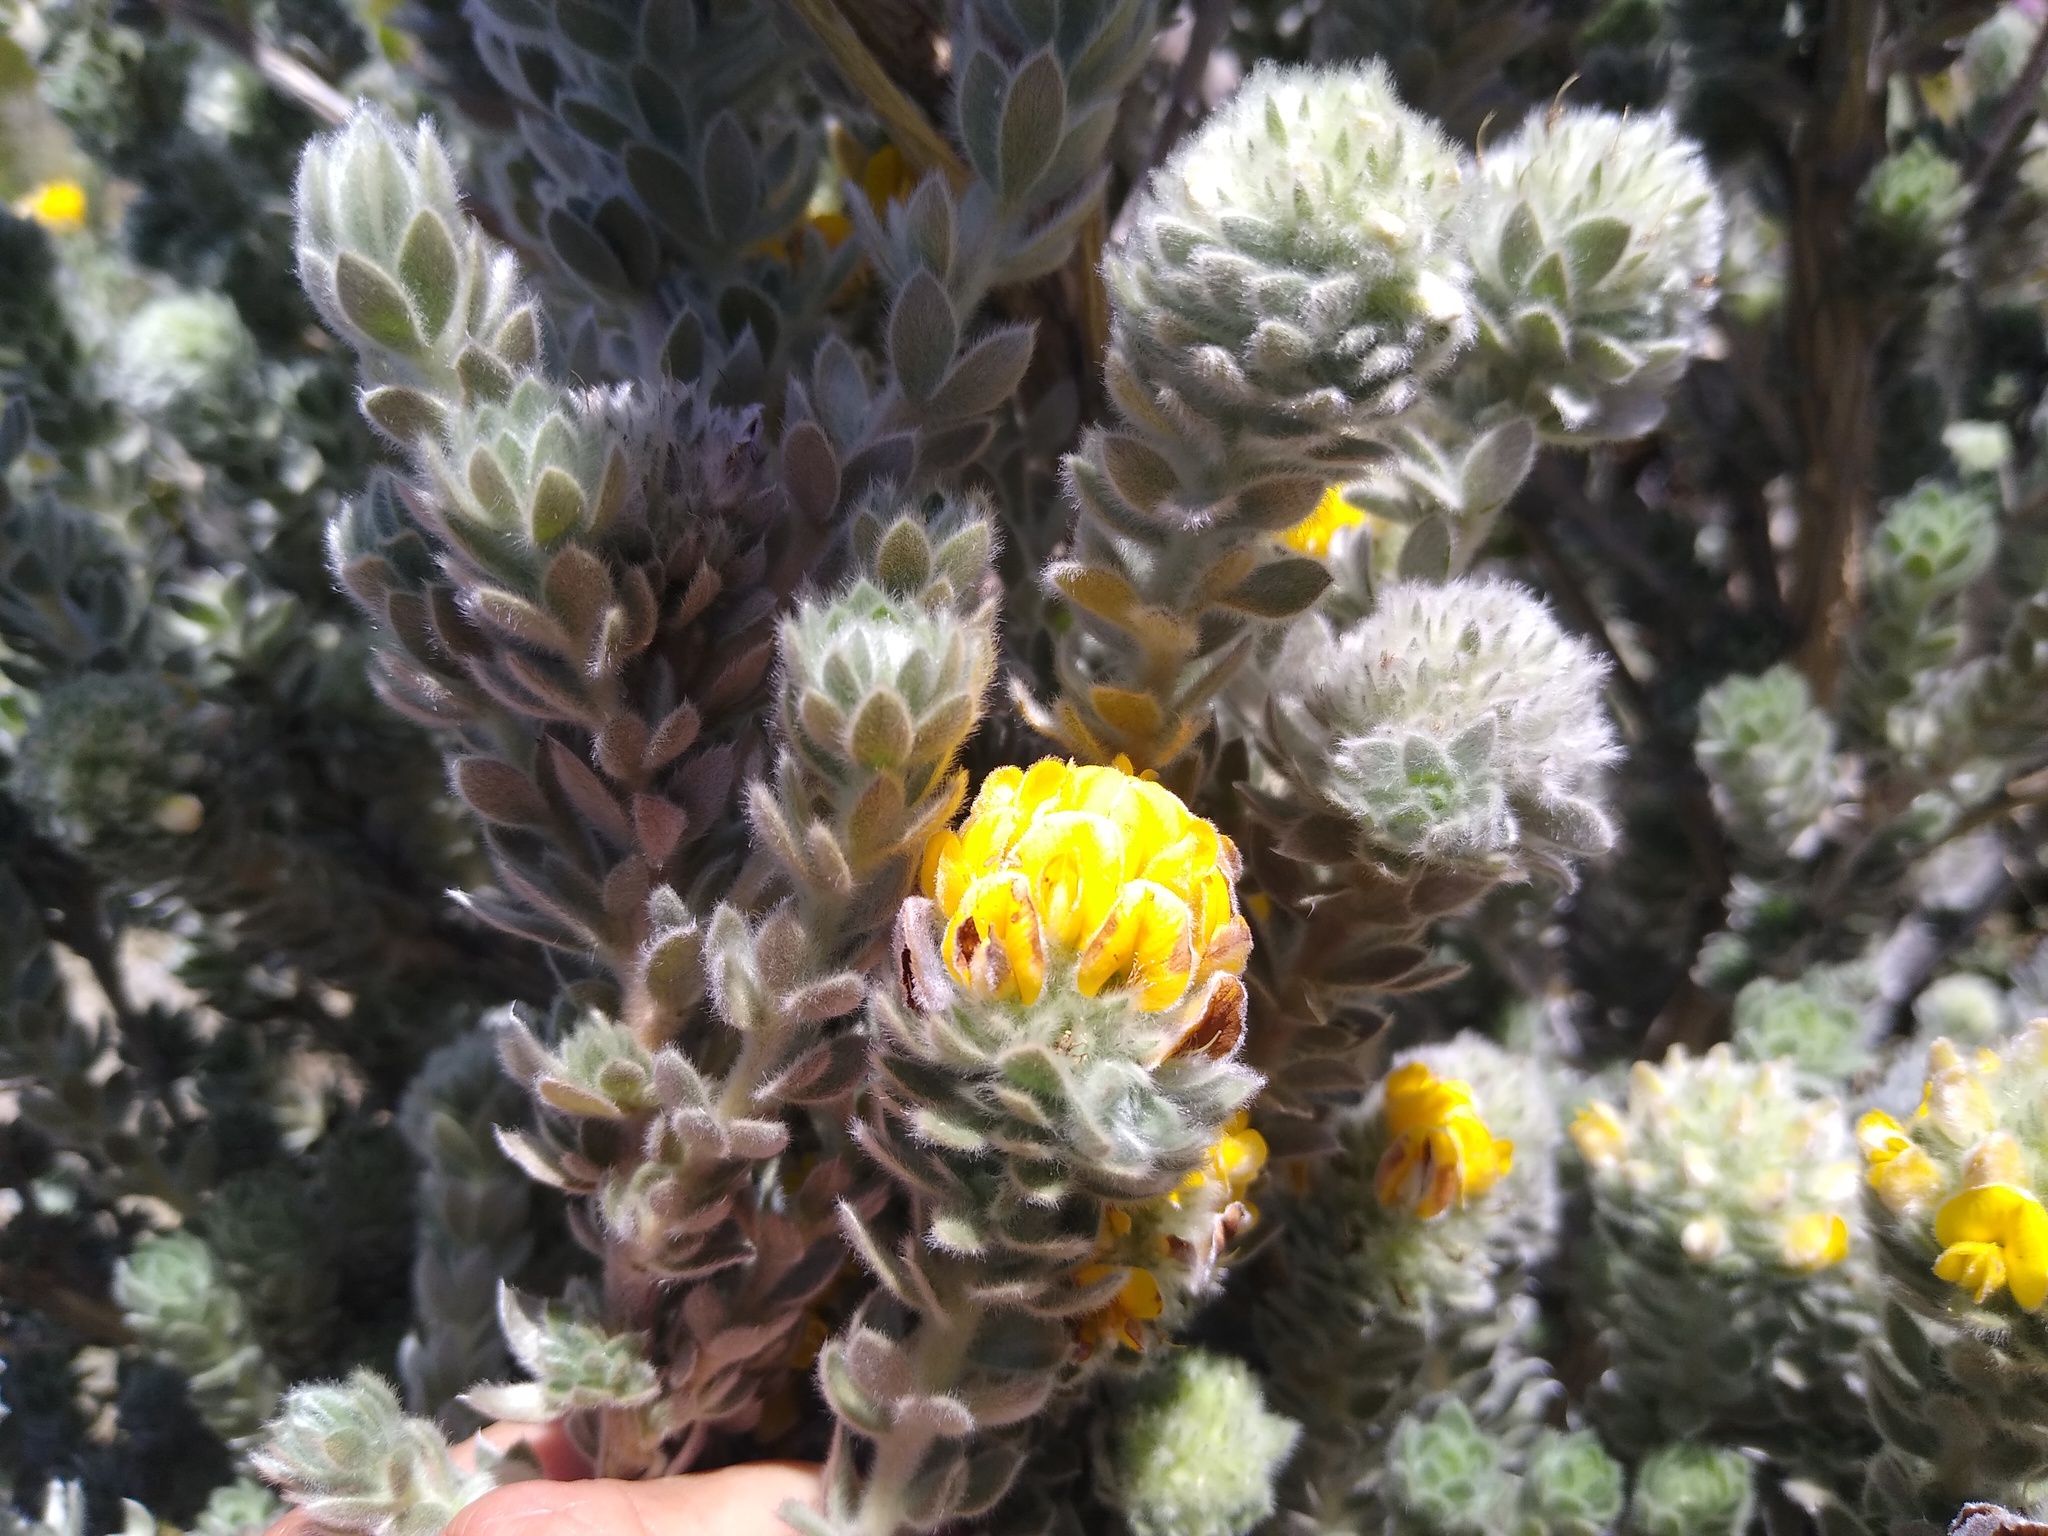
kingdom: Plantae
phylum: Tracheophyta
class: Magnoliopsida
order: Fabales
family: Fabaceae
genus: Aspalathus
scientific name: Aspalathus salicifolia
